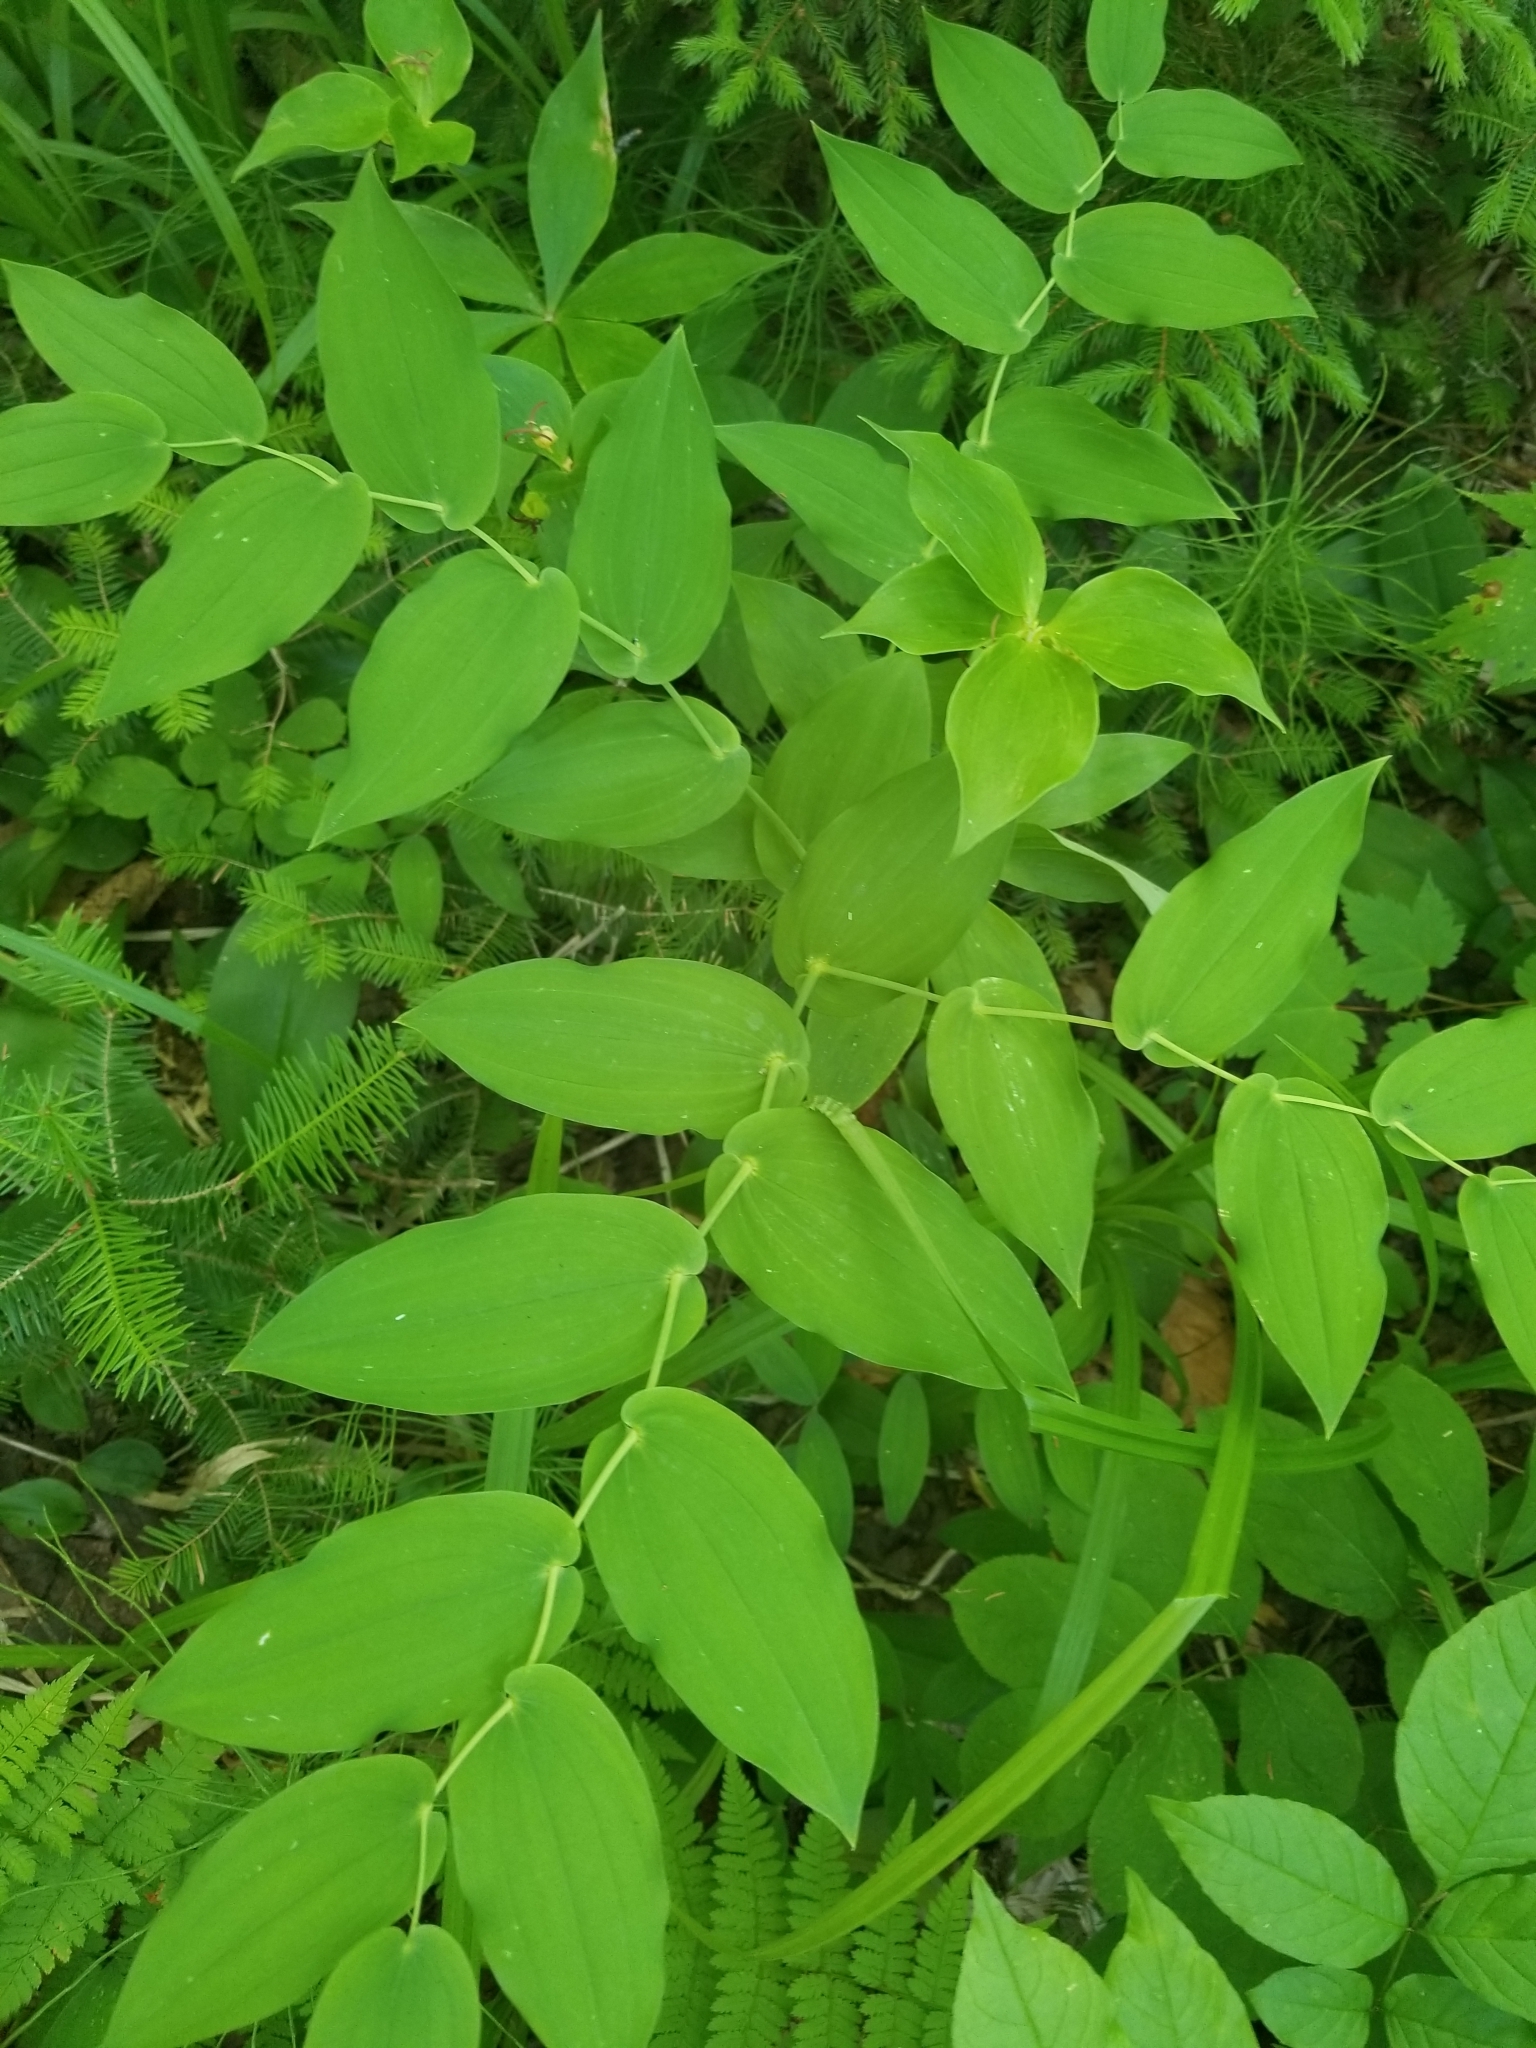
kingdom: Plantae
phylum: Tracheophyta
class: Liliopsida
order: Liliales
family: Liliaceae
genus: Streptopus
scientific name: Streptopus amplexifolius
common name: Clasp twisted stalk
